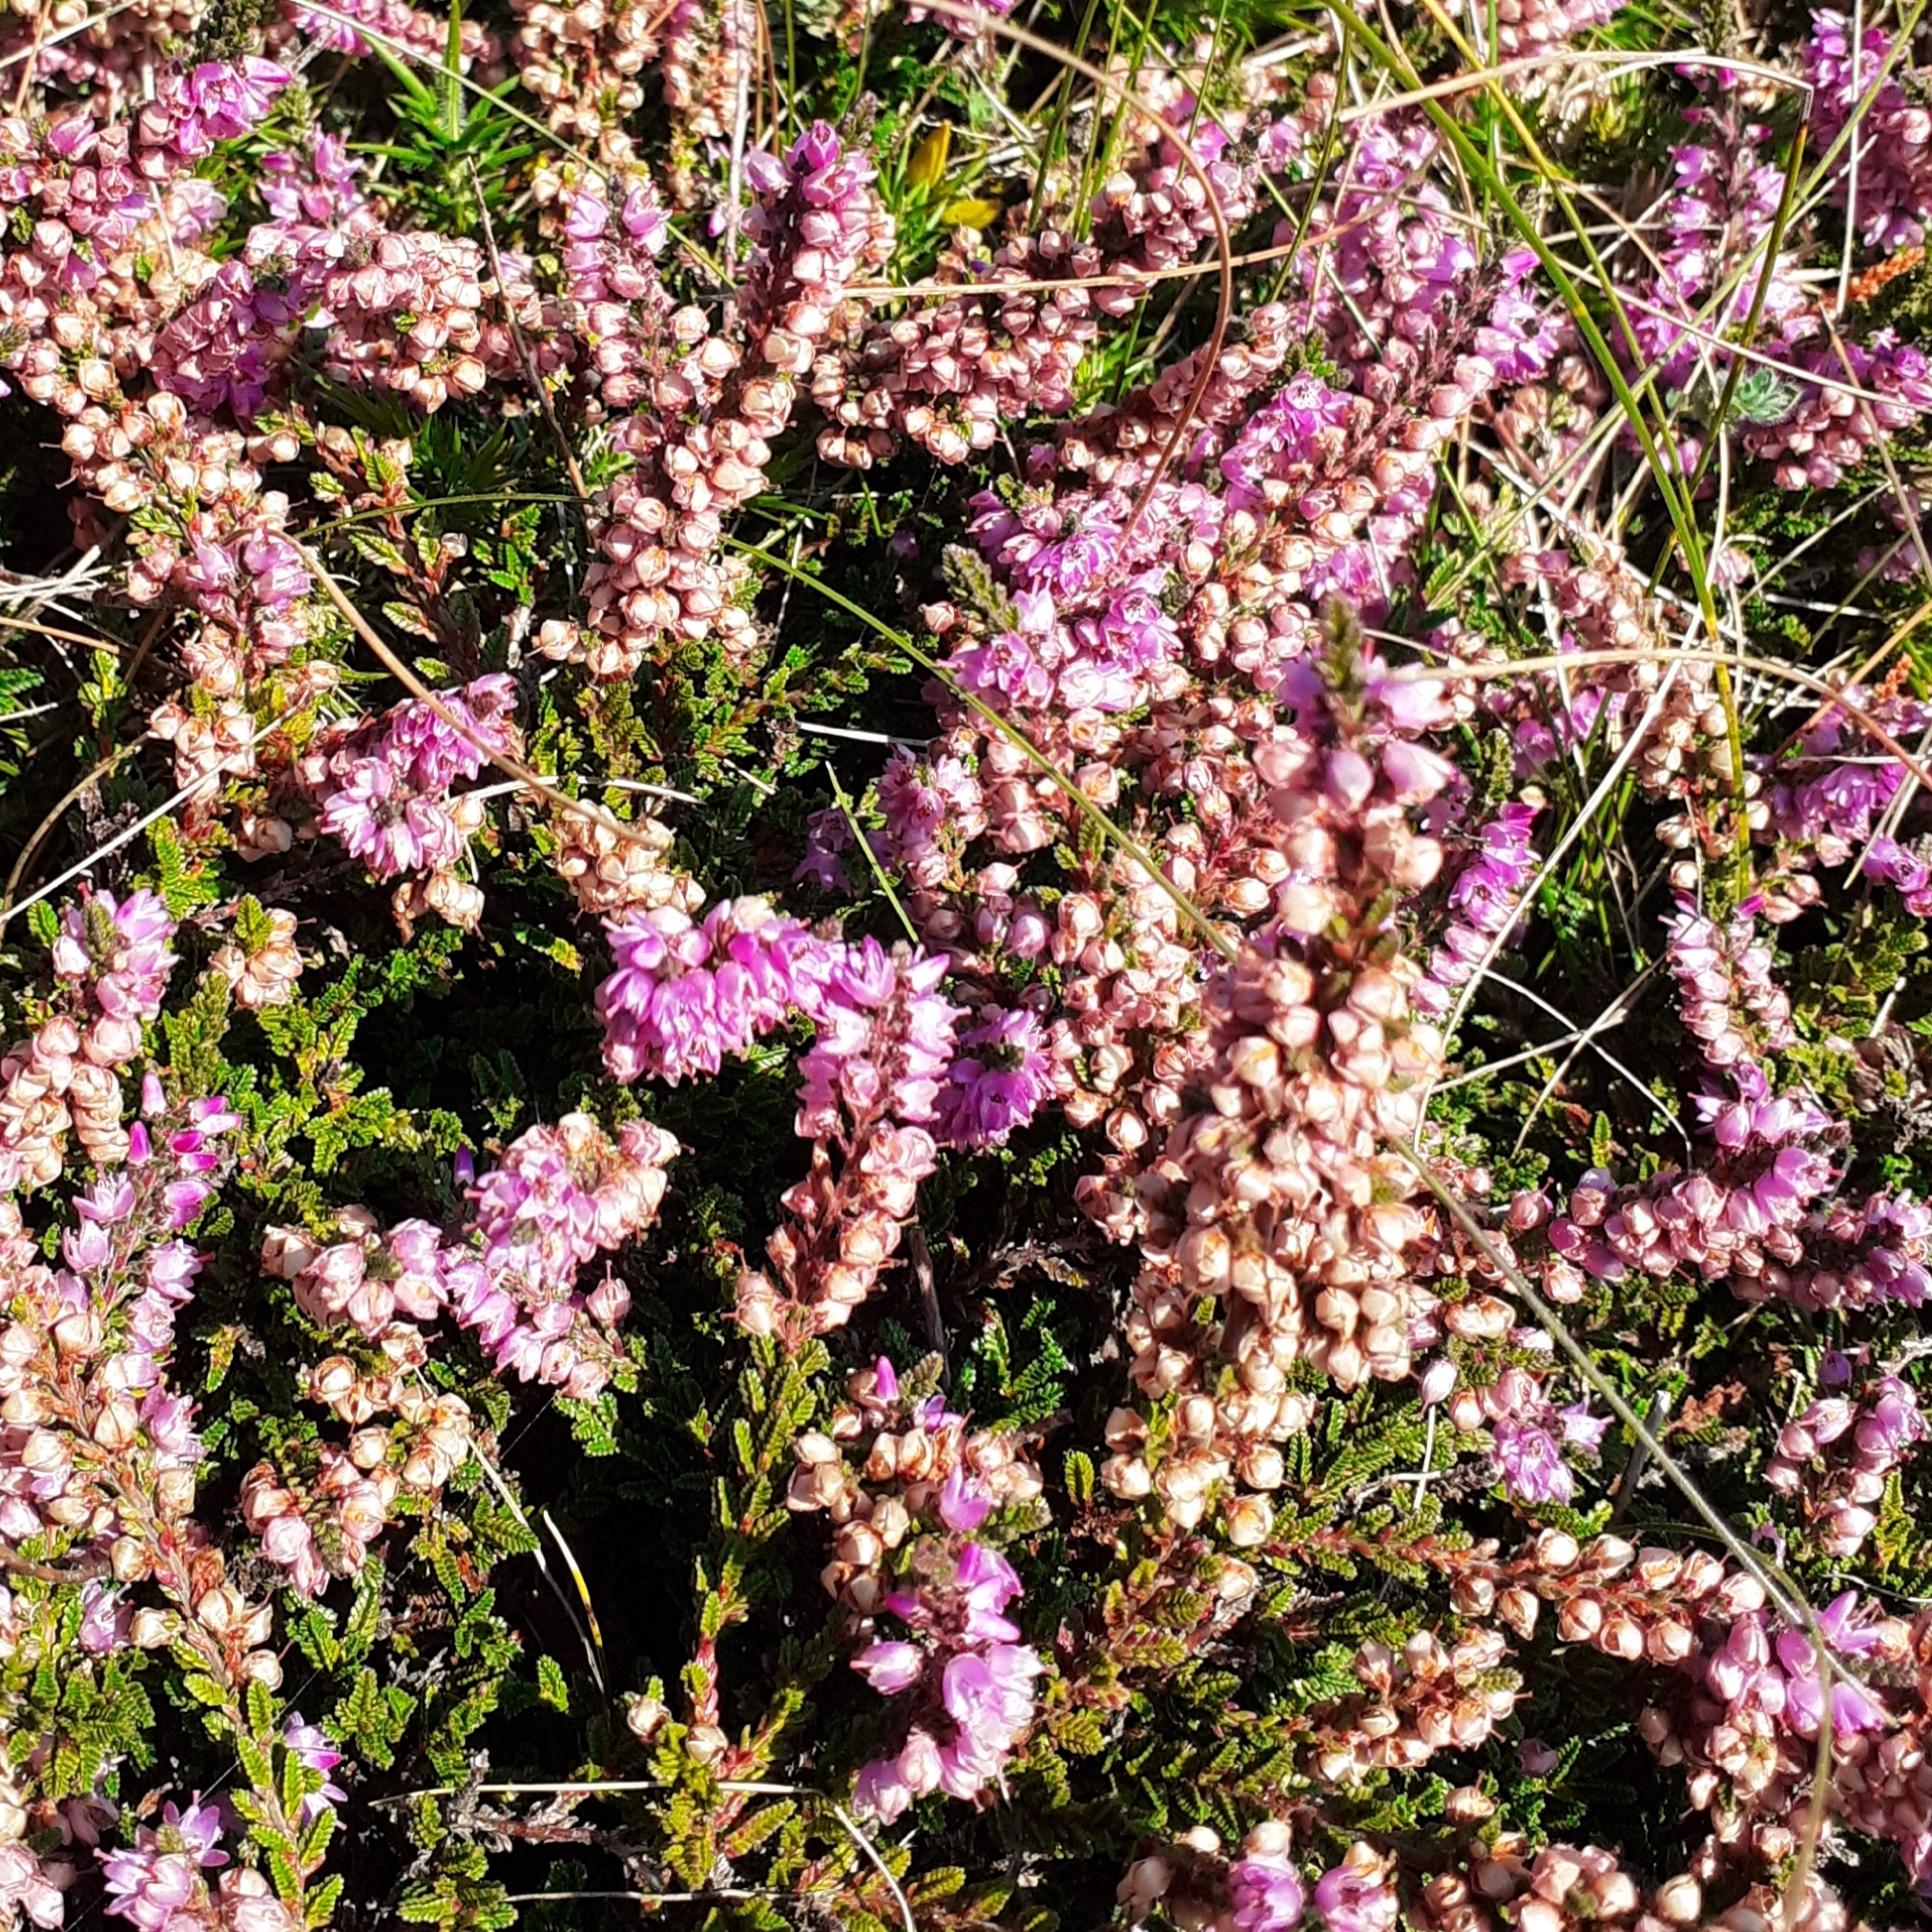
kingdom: Plantae
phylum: Tracheophyta
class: Magnoliopsida
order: Ericales
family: Ericaceae
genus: Calluna
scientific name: Calluna vulgaris
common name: Heather
